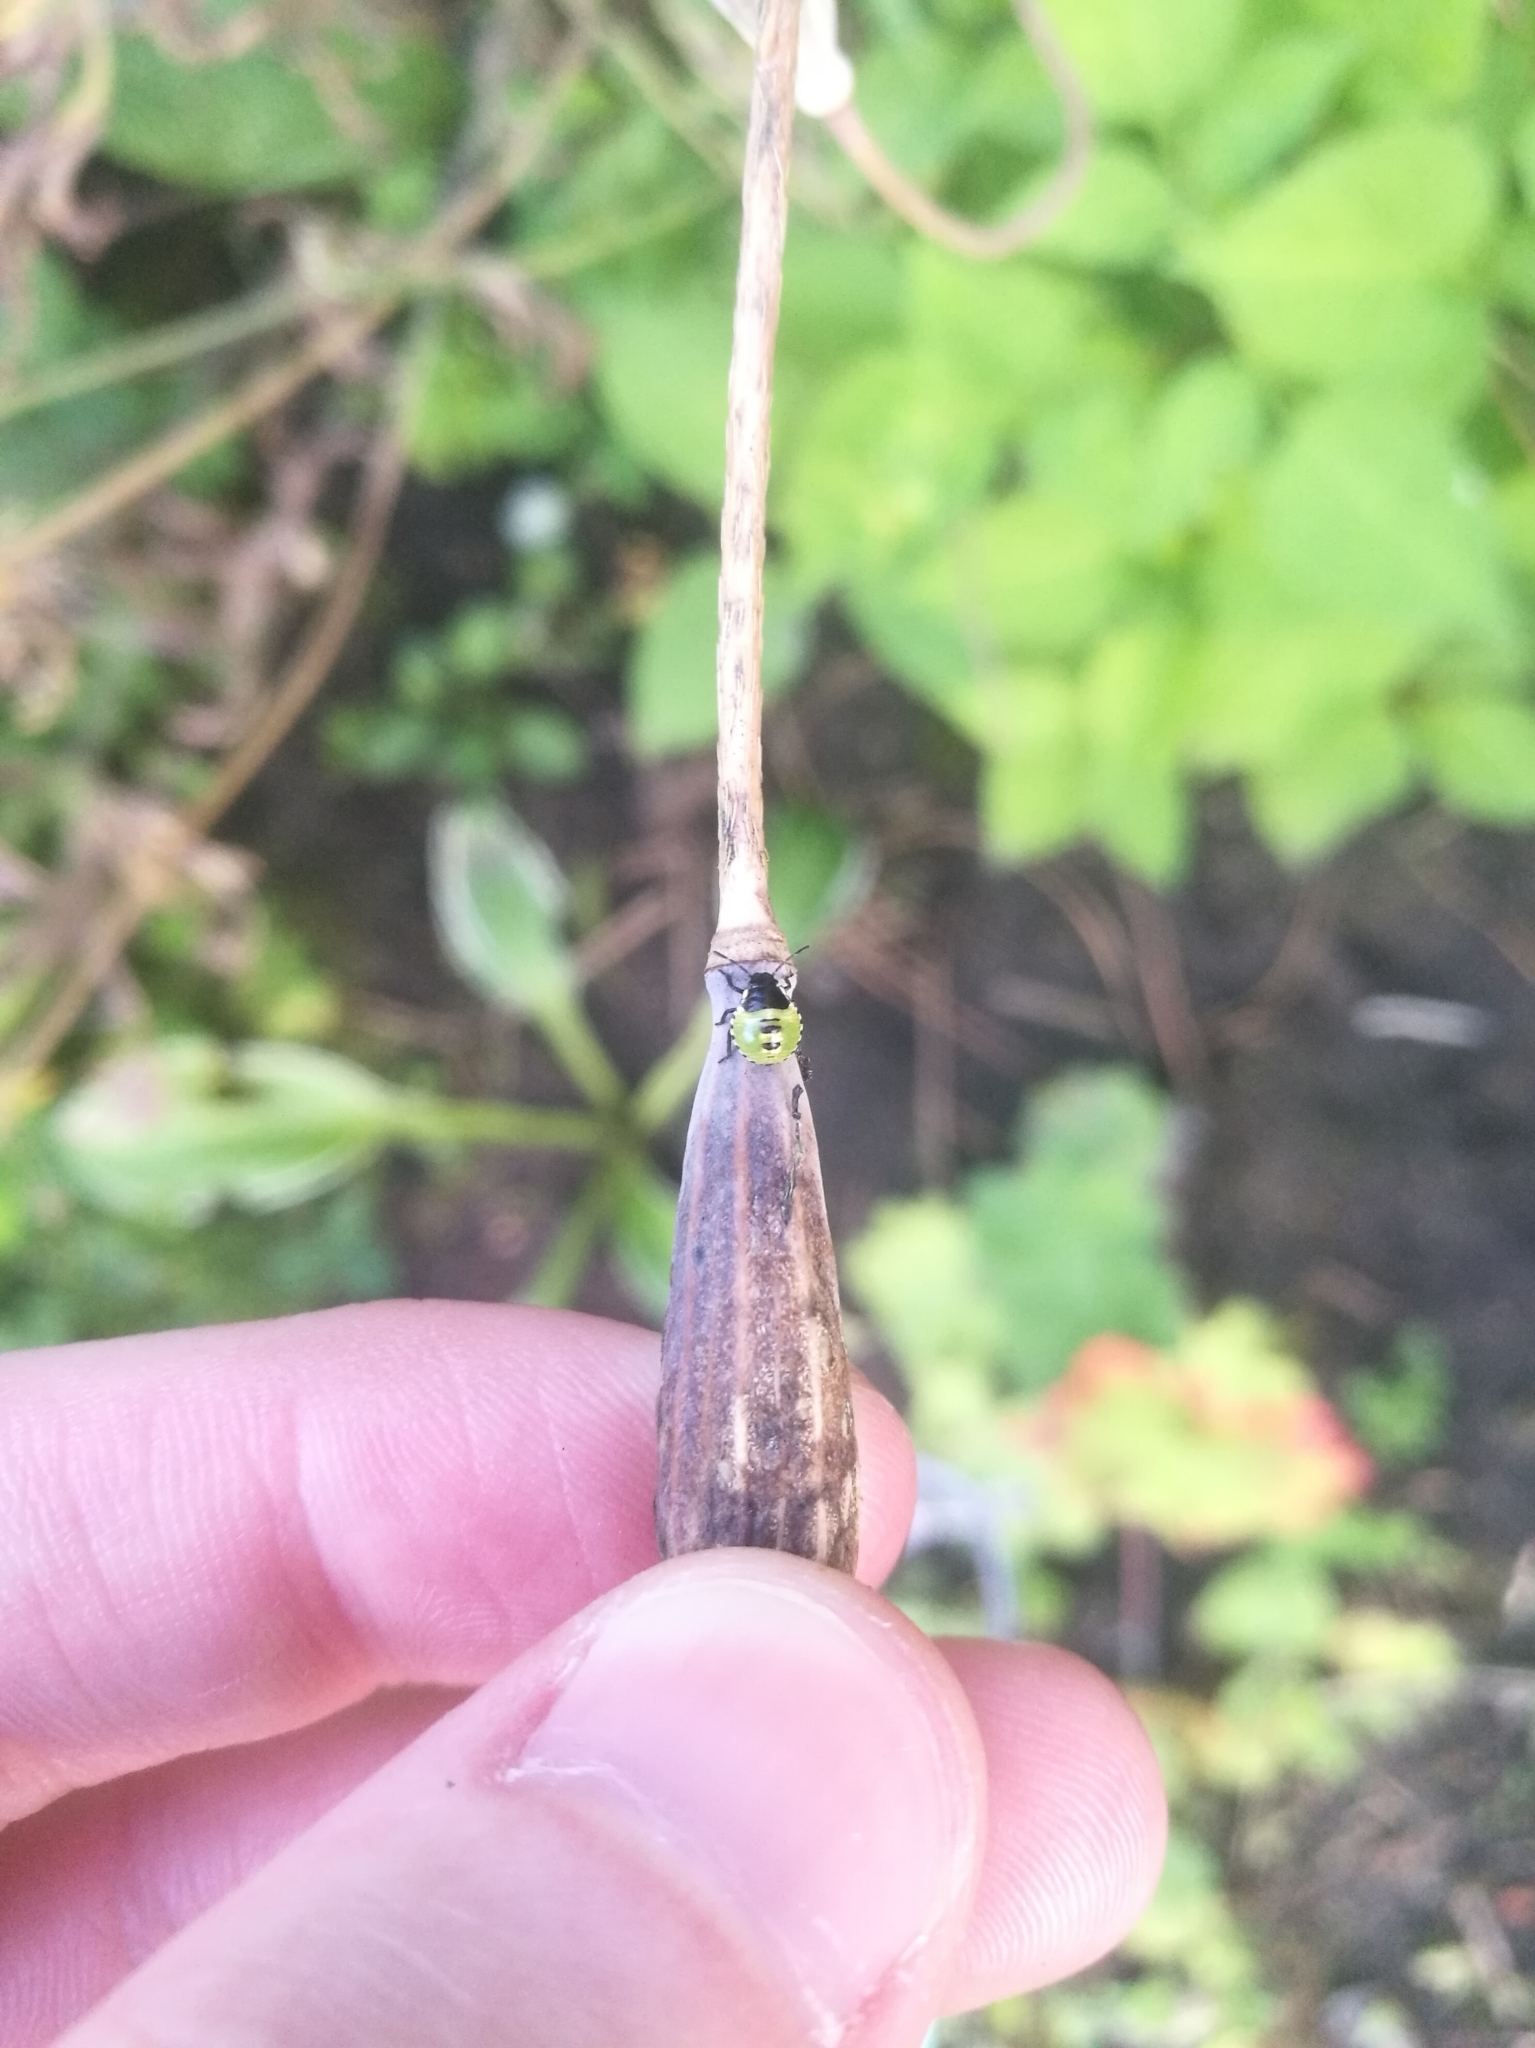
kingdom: Animalia
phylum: Arthropoda
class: Insecta
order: Hemiptera
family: Pentatomidae
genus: Palomena
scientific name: Palomena prasina
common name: Green shieldbug
